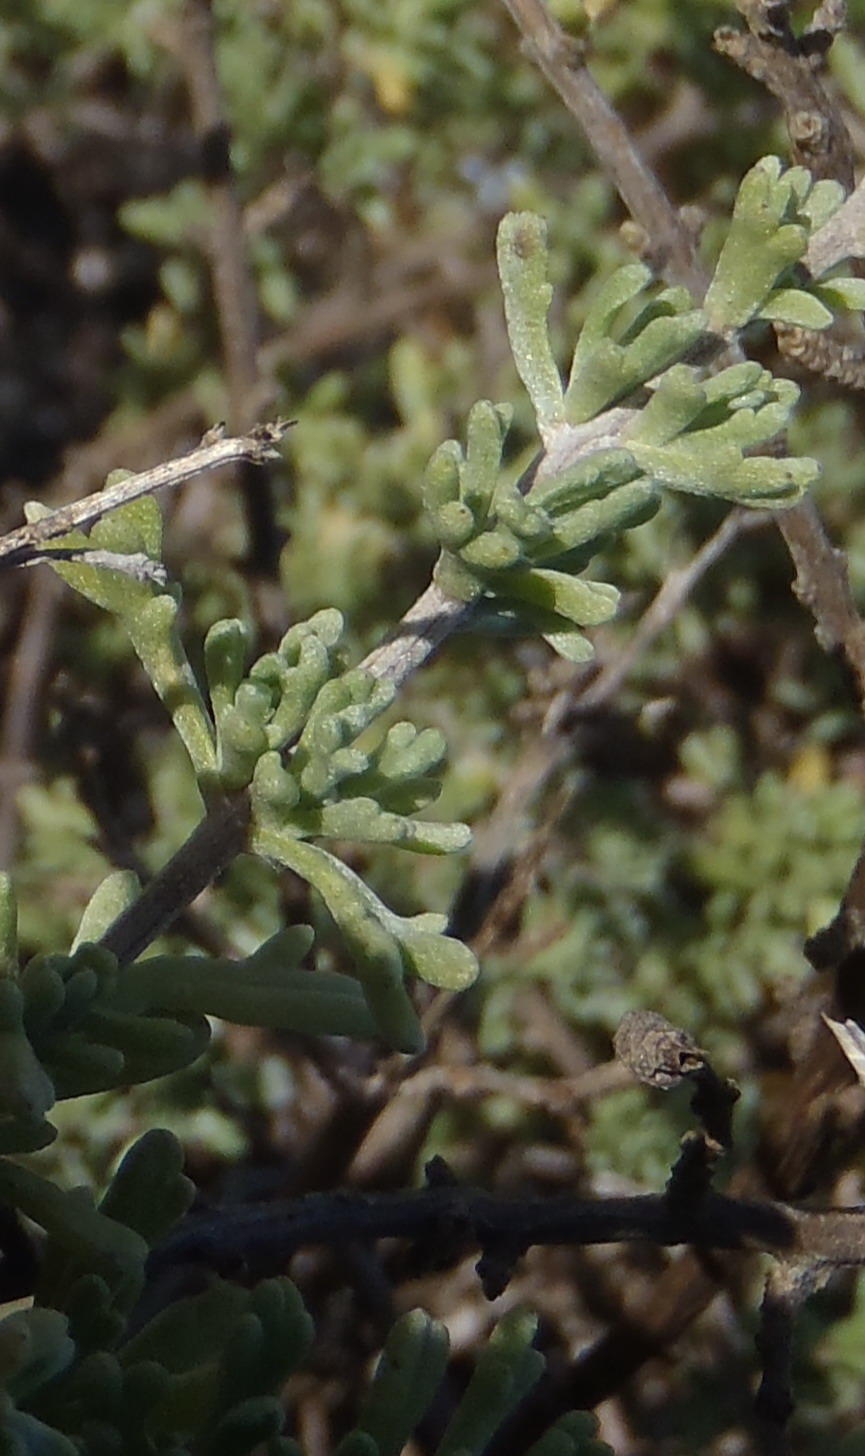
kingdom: Plantae
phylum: Tracheophyta
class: Magnoliopsida
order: Asterales
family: Asteraceae
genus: Eriocephalus
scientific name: Eriocephalus africanus
